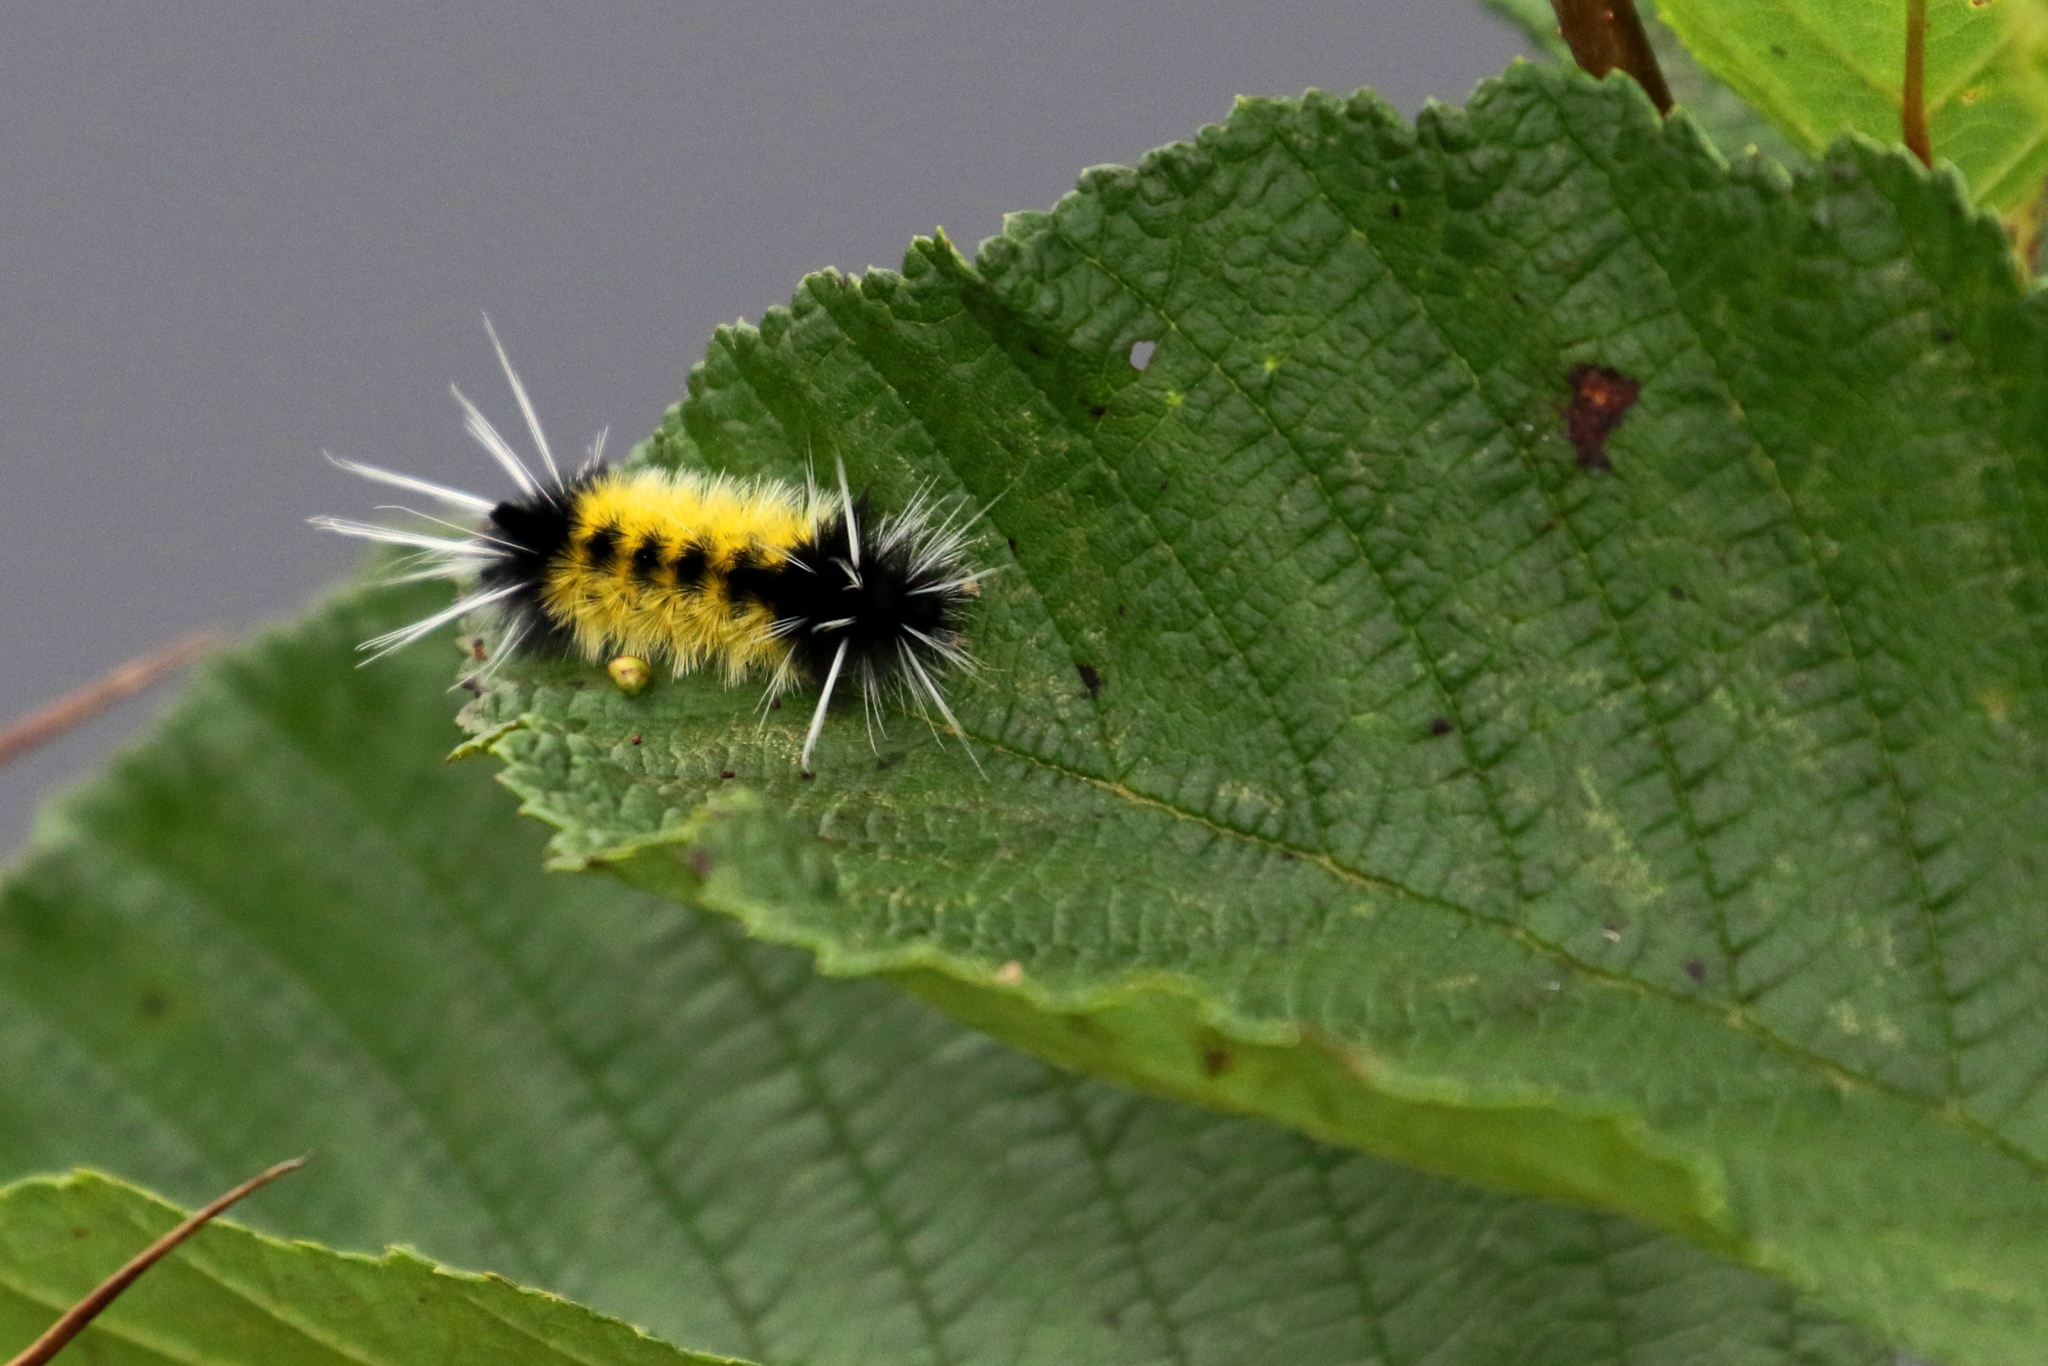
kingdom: Animalia
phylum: Arthropoda
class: Insecta
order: Lepidoptera
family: Erebidae
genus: Lophocampa
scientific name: Lophocampa maculata
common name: Spotted tussock moth
